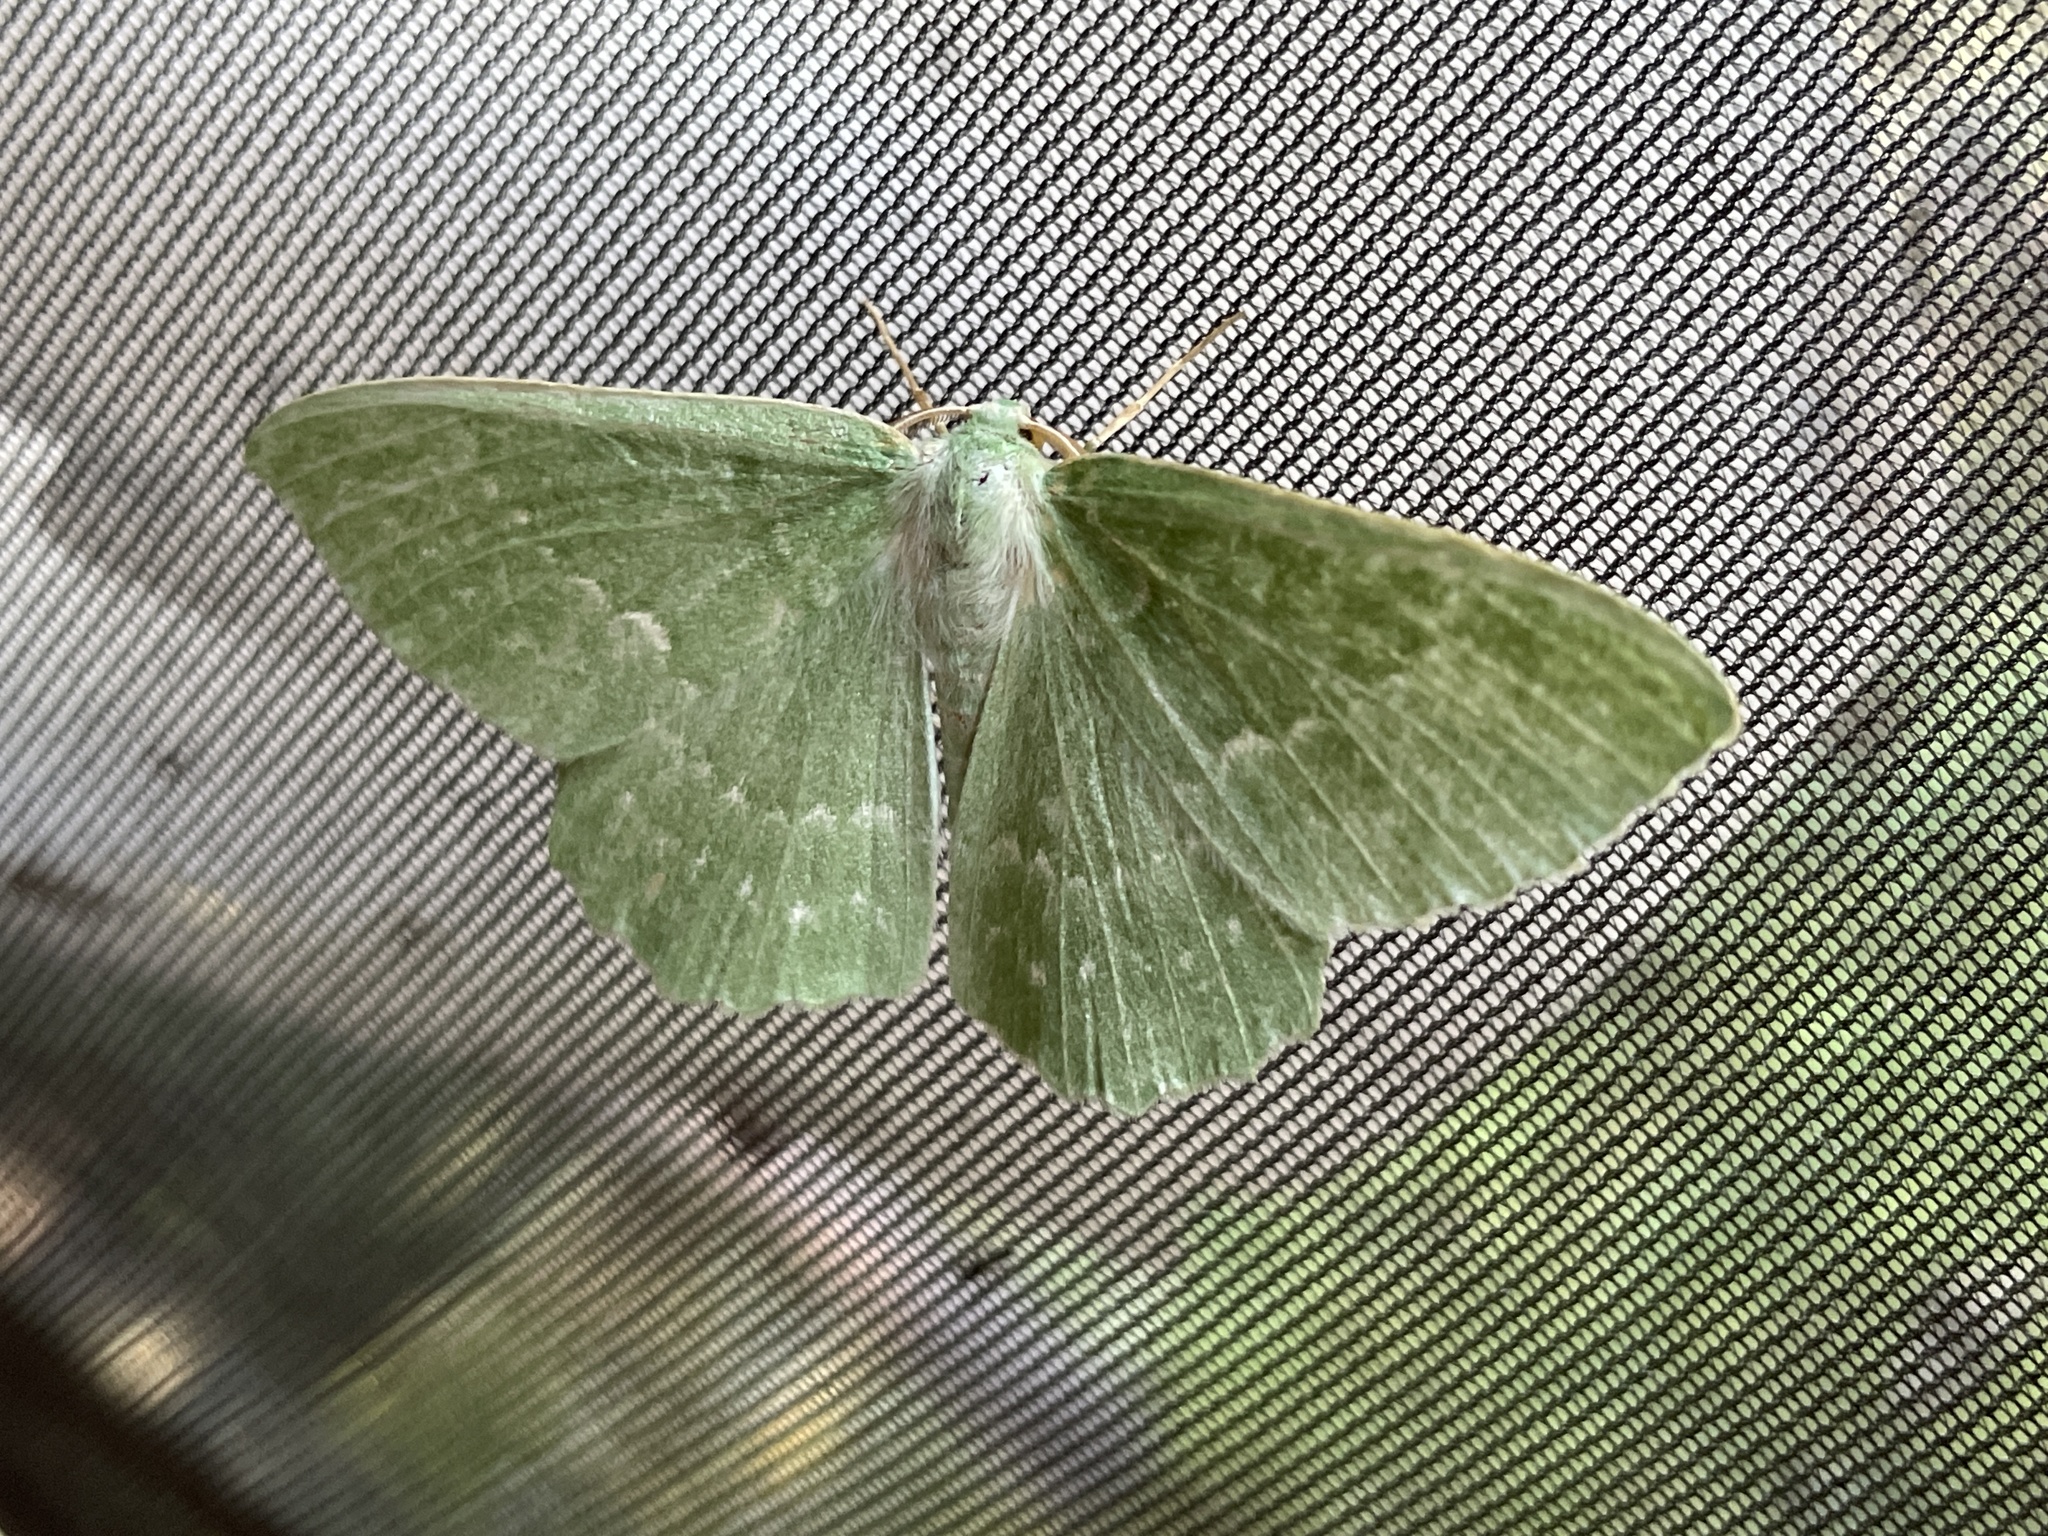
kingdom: Animalia
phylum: Arthropoda
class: Insecta
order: Lepidoptera
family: Geometridae
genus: Geometra
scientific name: Geometra papilionaria
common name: Large emerald
